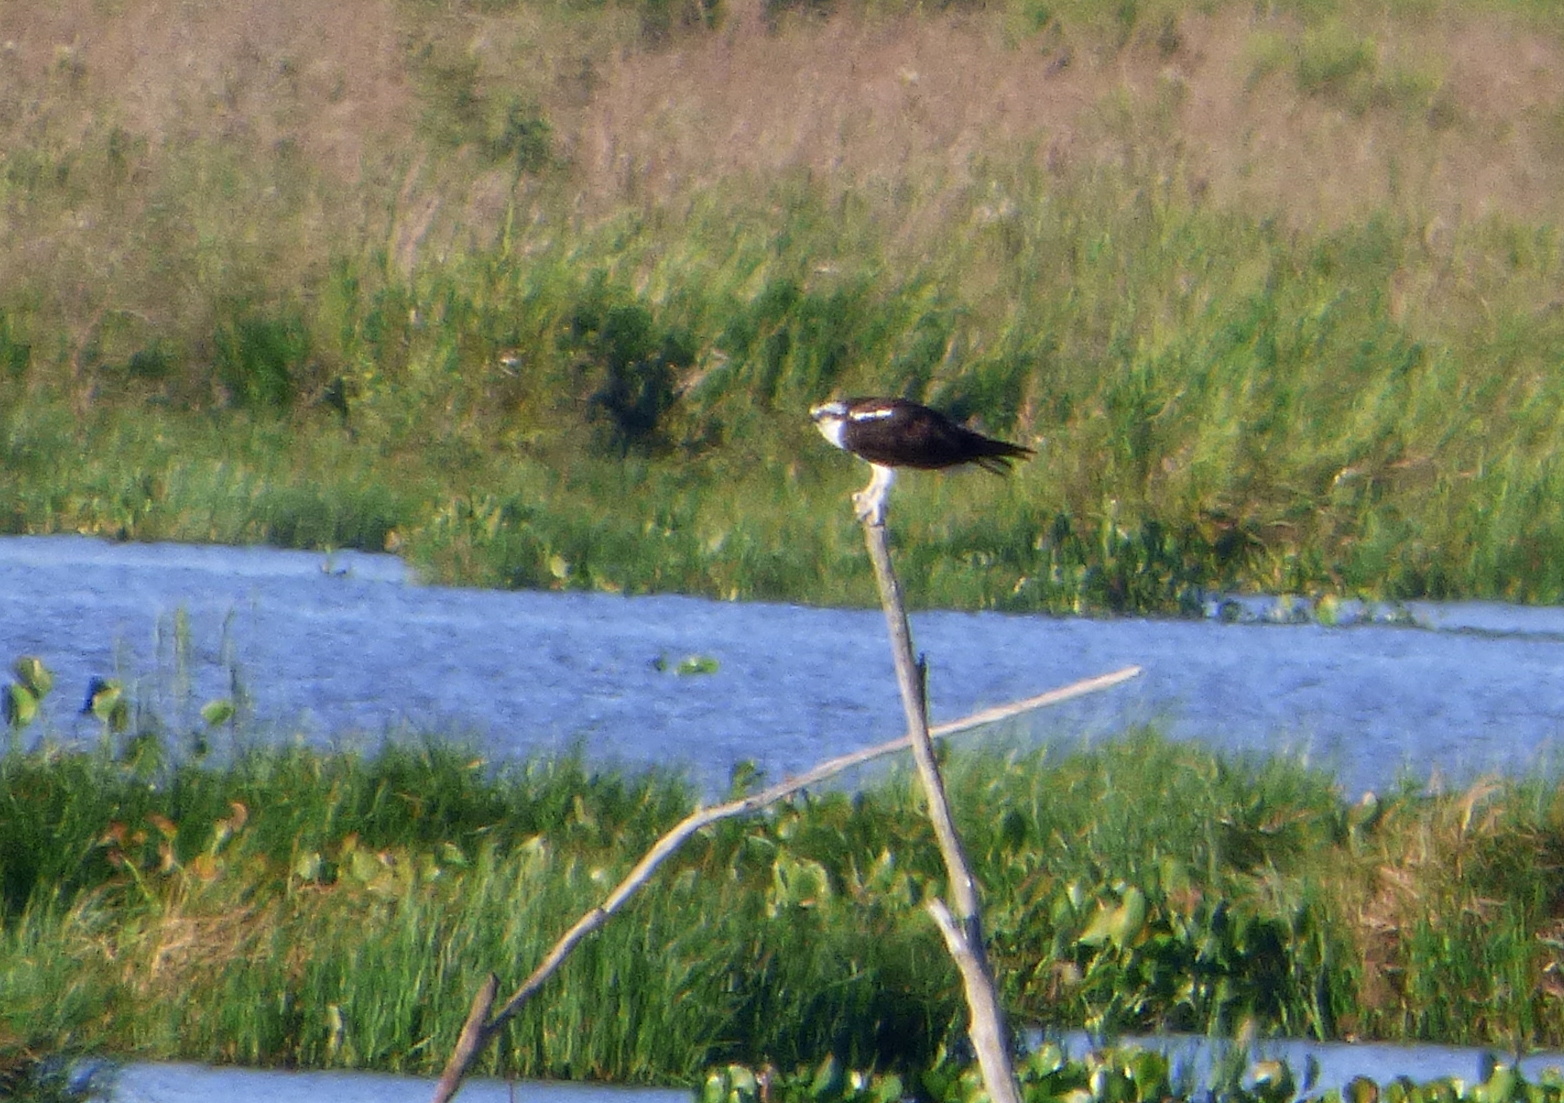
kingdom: Animalia
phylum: Chordata
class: Aves
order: Accipitriformes
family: Pandionidae
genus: Pandion
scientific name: Pandion haliaetus
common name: Osprey
